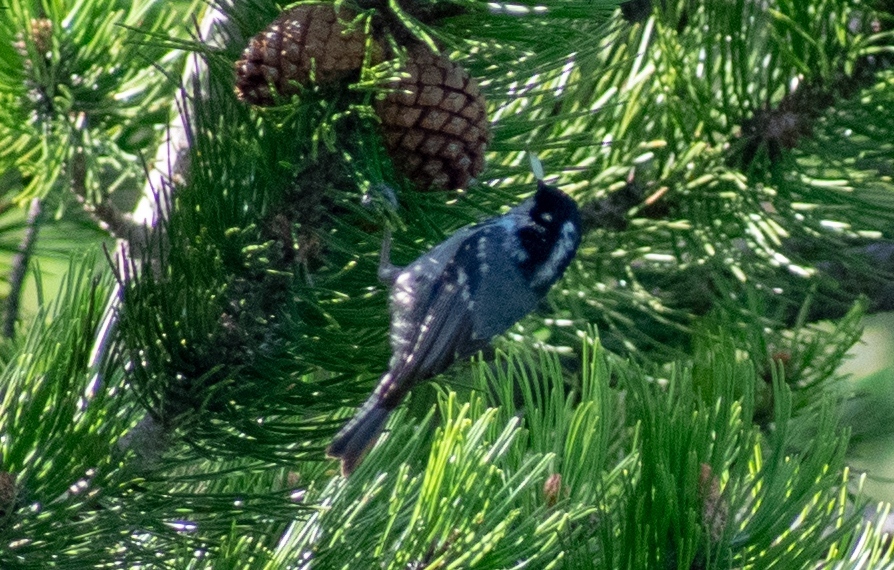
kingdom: Animalia
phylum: Chordata
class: Aves
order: Passeriformes
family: Paridae
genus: Periparus
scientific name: Periparus ater
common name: Coal tit
